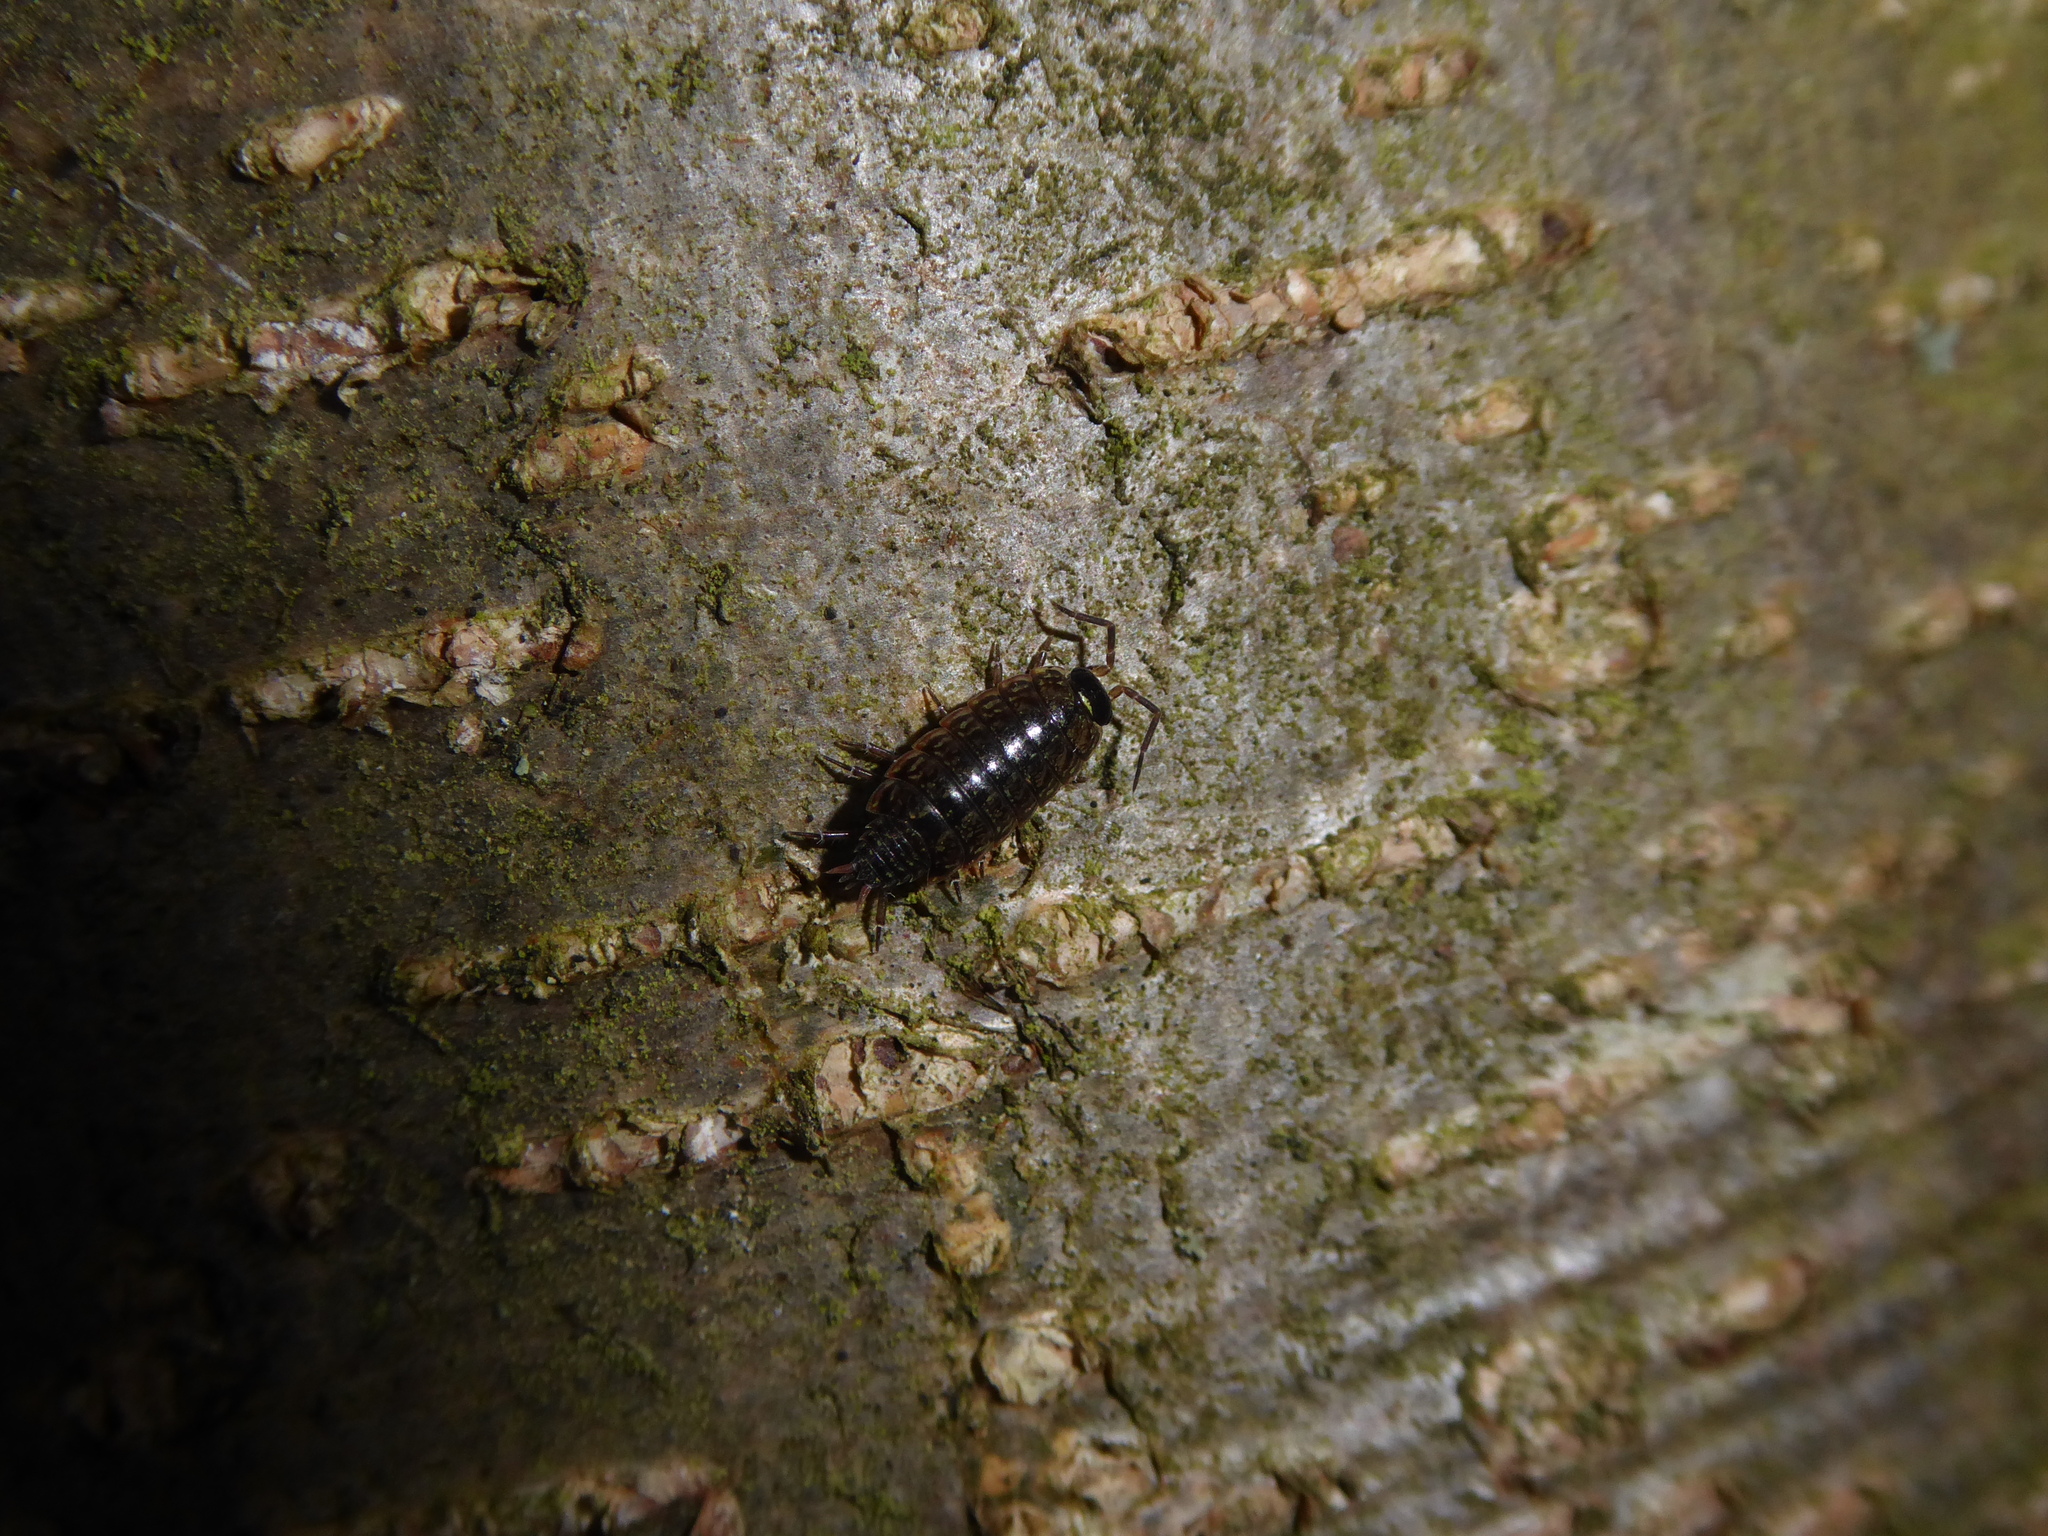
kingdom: Animalia
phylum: Arthropoda
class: Malacostraca
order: Isopoda
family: Philosciidae
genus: Philoscia
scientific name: Philoscia muscorum
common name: Common striped woodlouse
